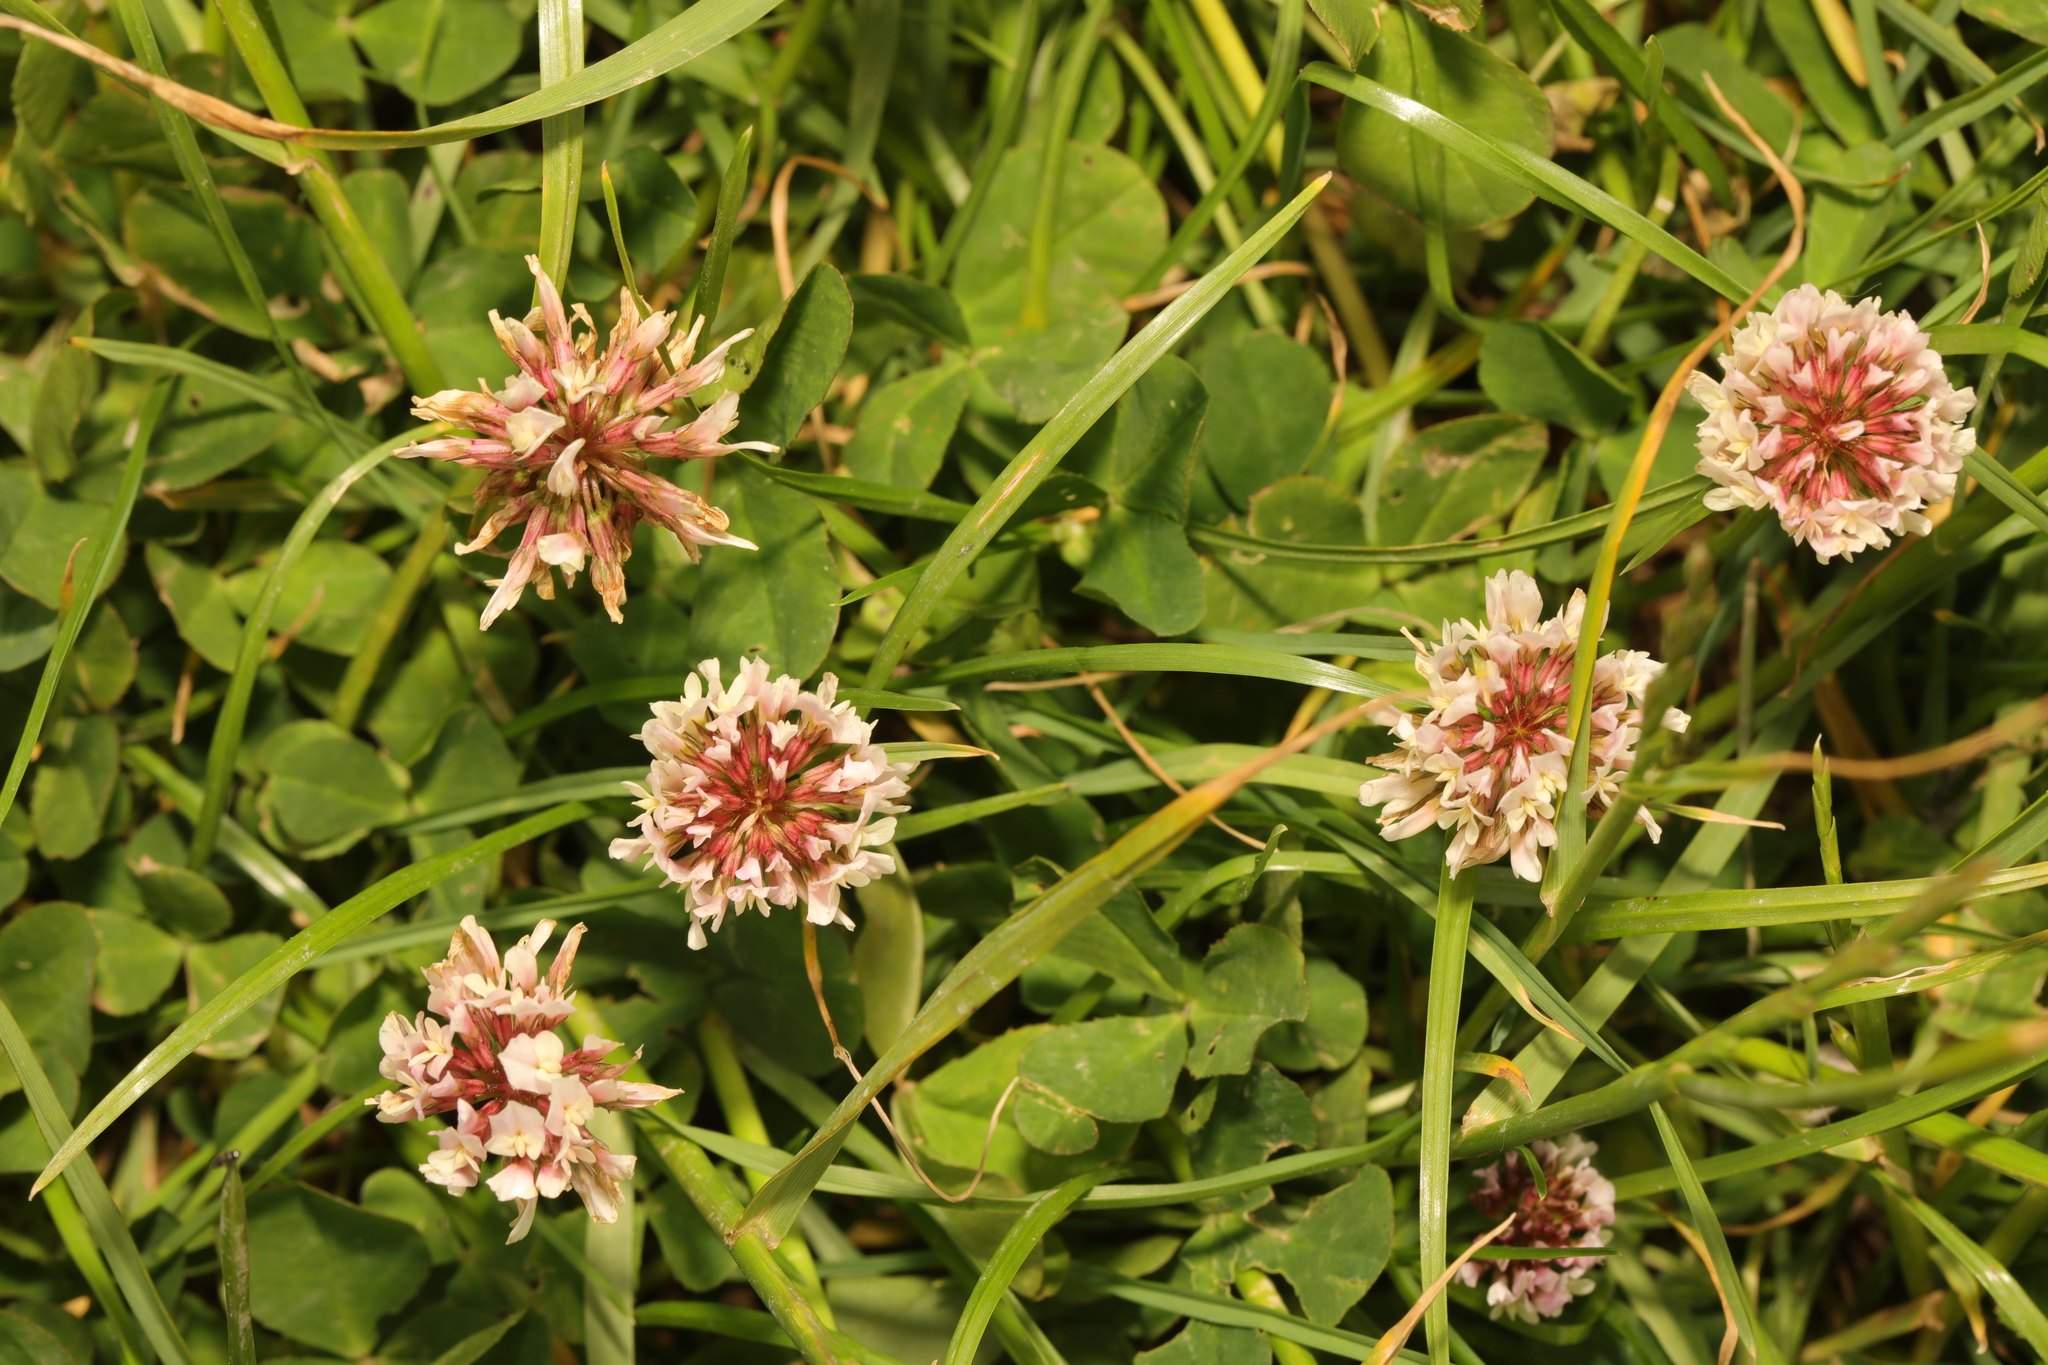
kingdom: Plantae
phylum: Tracheophyta
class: Magnoliopsida
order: Fabales
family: Fabaceae
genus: Trifolium
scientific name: Trifolium repens
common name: White clover
